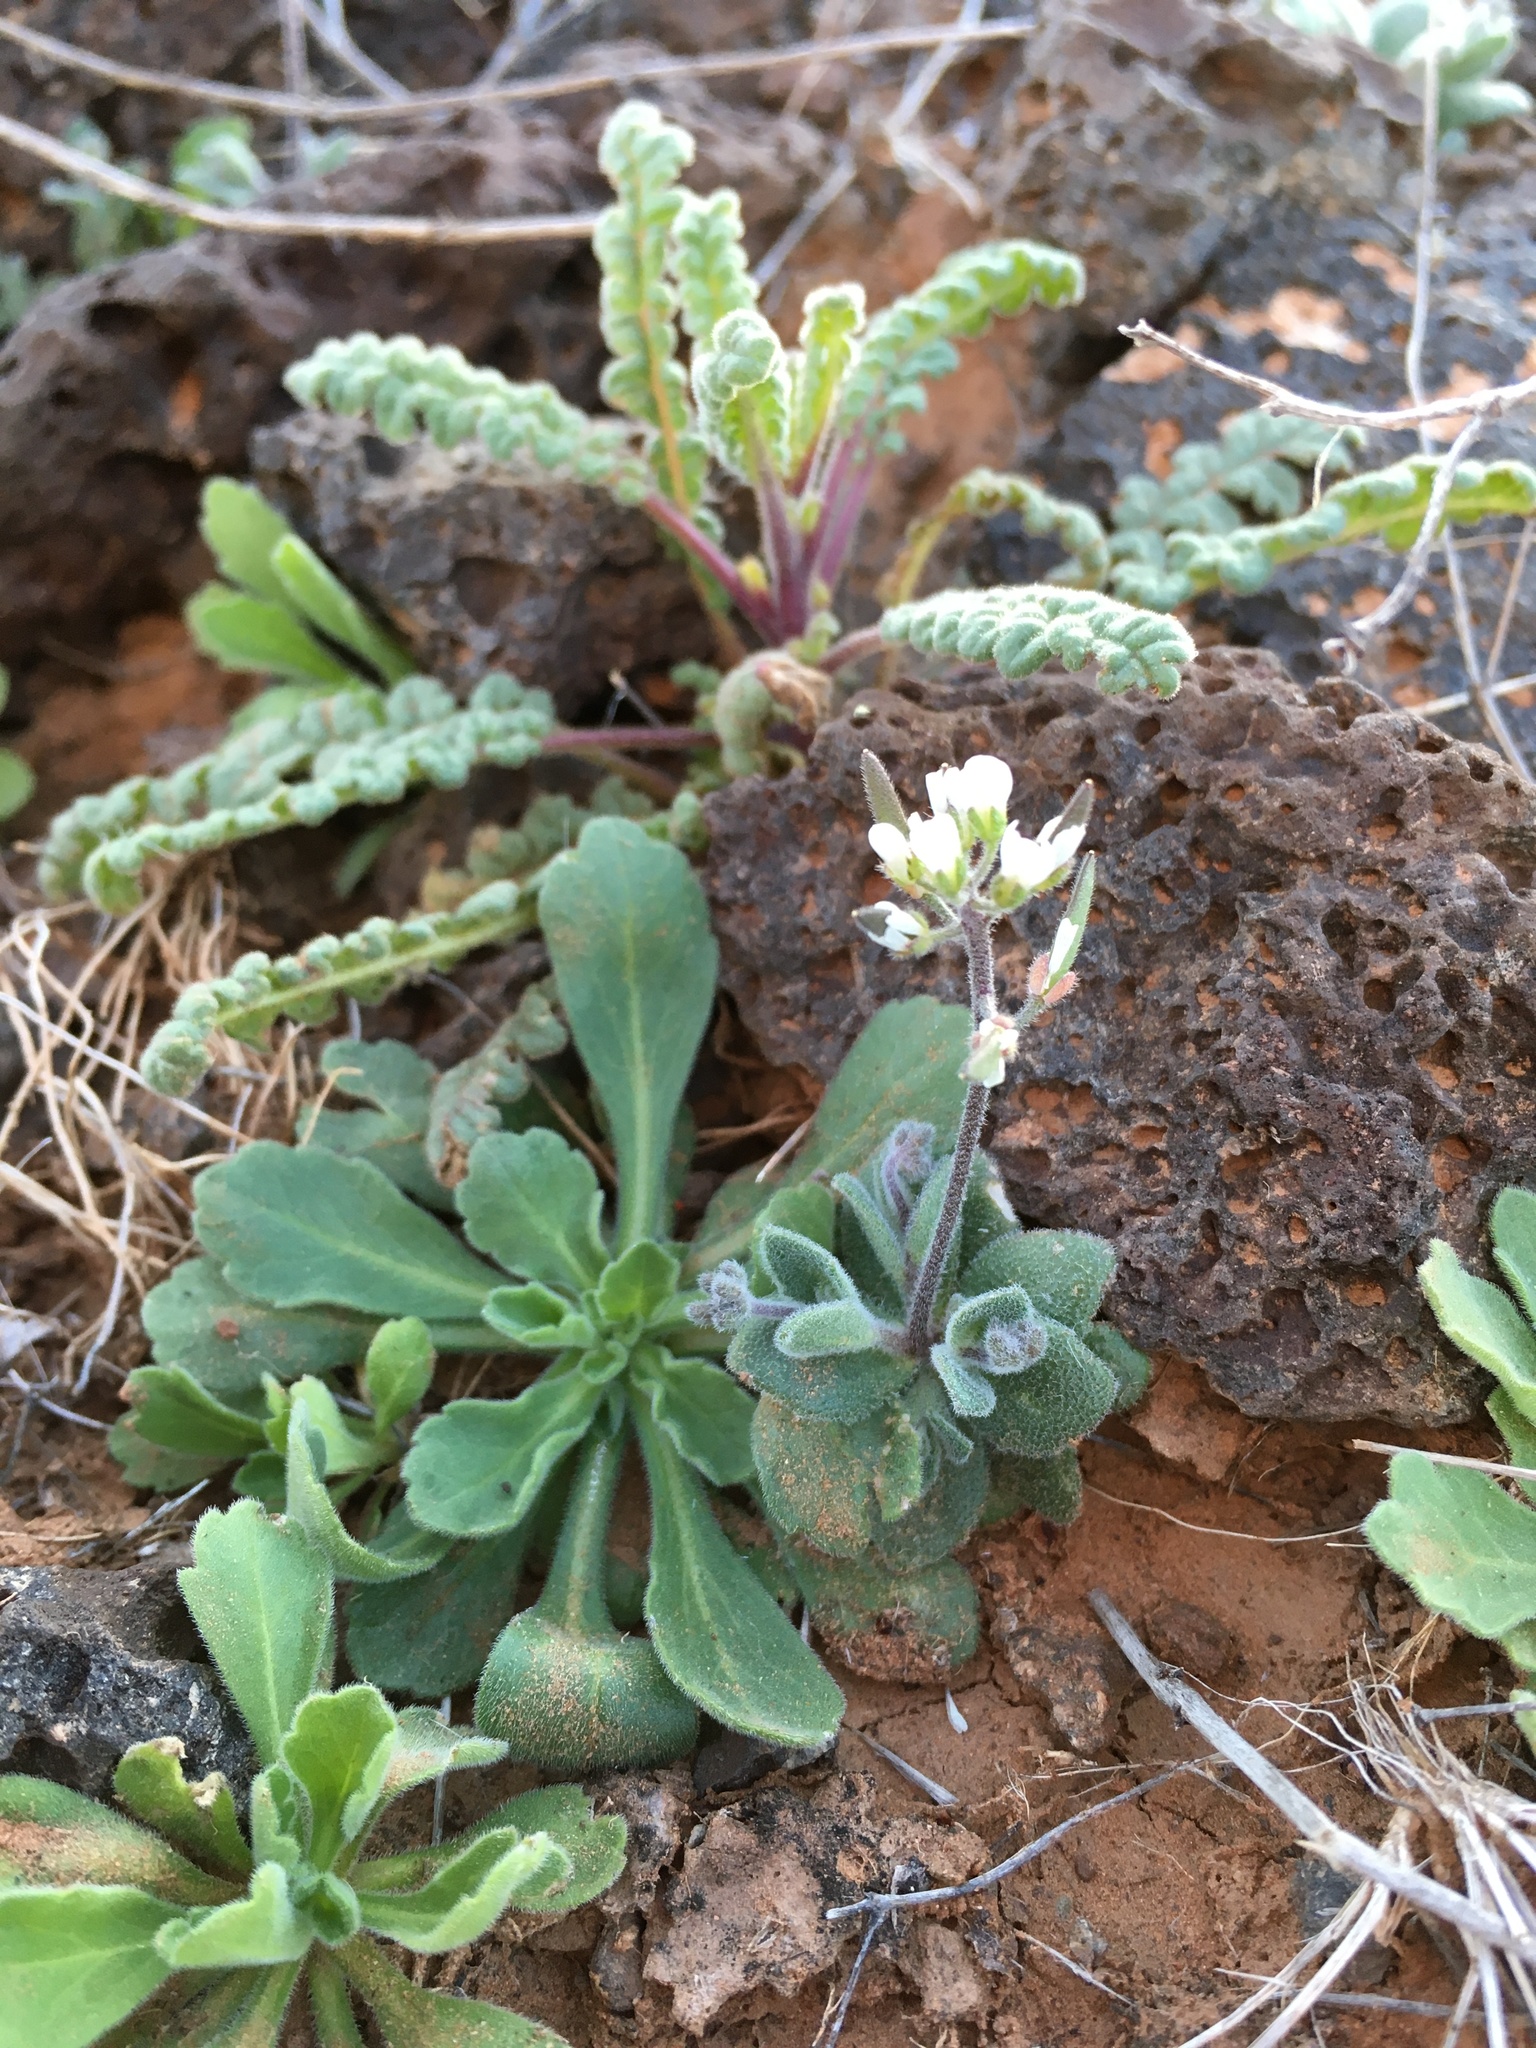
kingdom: Plantae
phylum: Tracheophyta
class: Magnoliopsida
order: Brassicales
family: Brassicaceae
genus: Tomostima
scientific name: Tomostima cuneifolia
